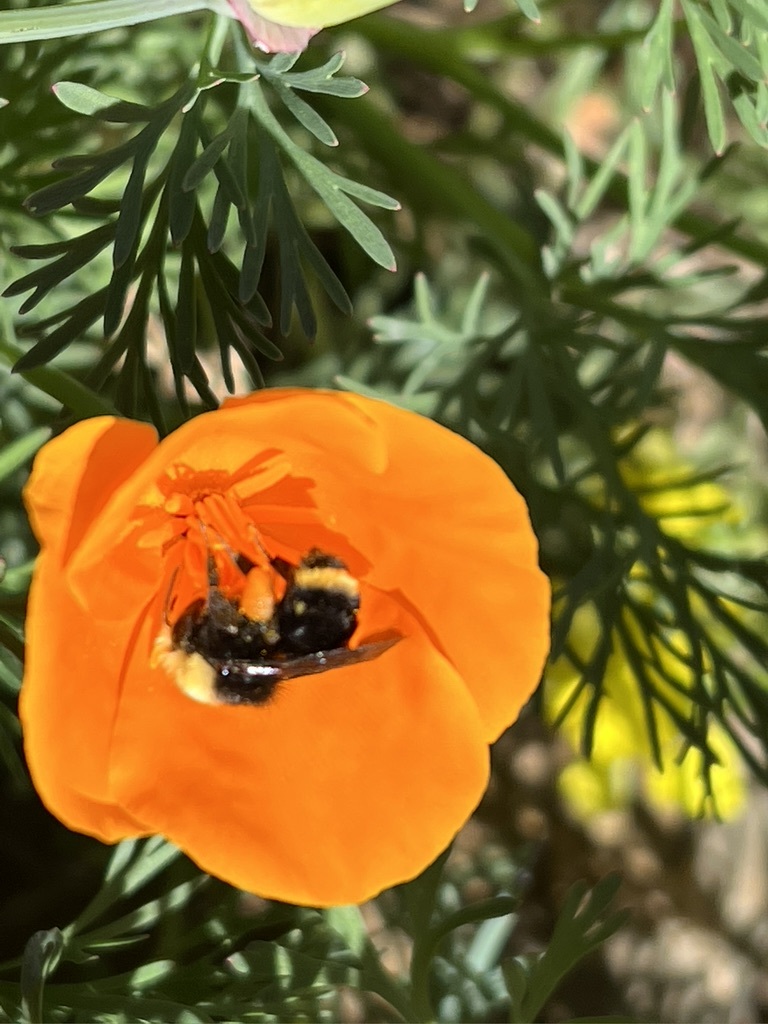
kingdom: Plantae
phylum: Tracheophyta
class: Magnoliopsida
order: Ranunculales
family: Papaveraceae
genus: Eschscholzia
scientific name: Eschscholzia californica
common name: California poppy
